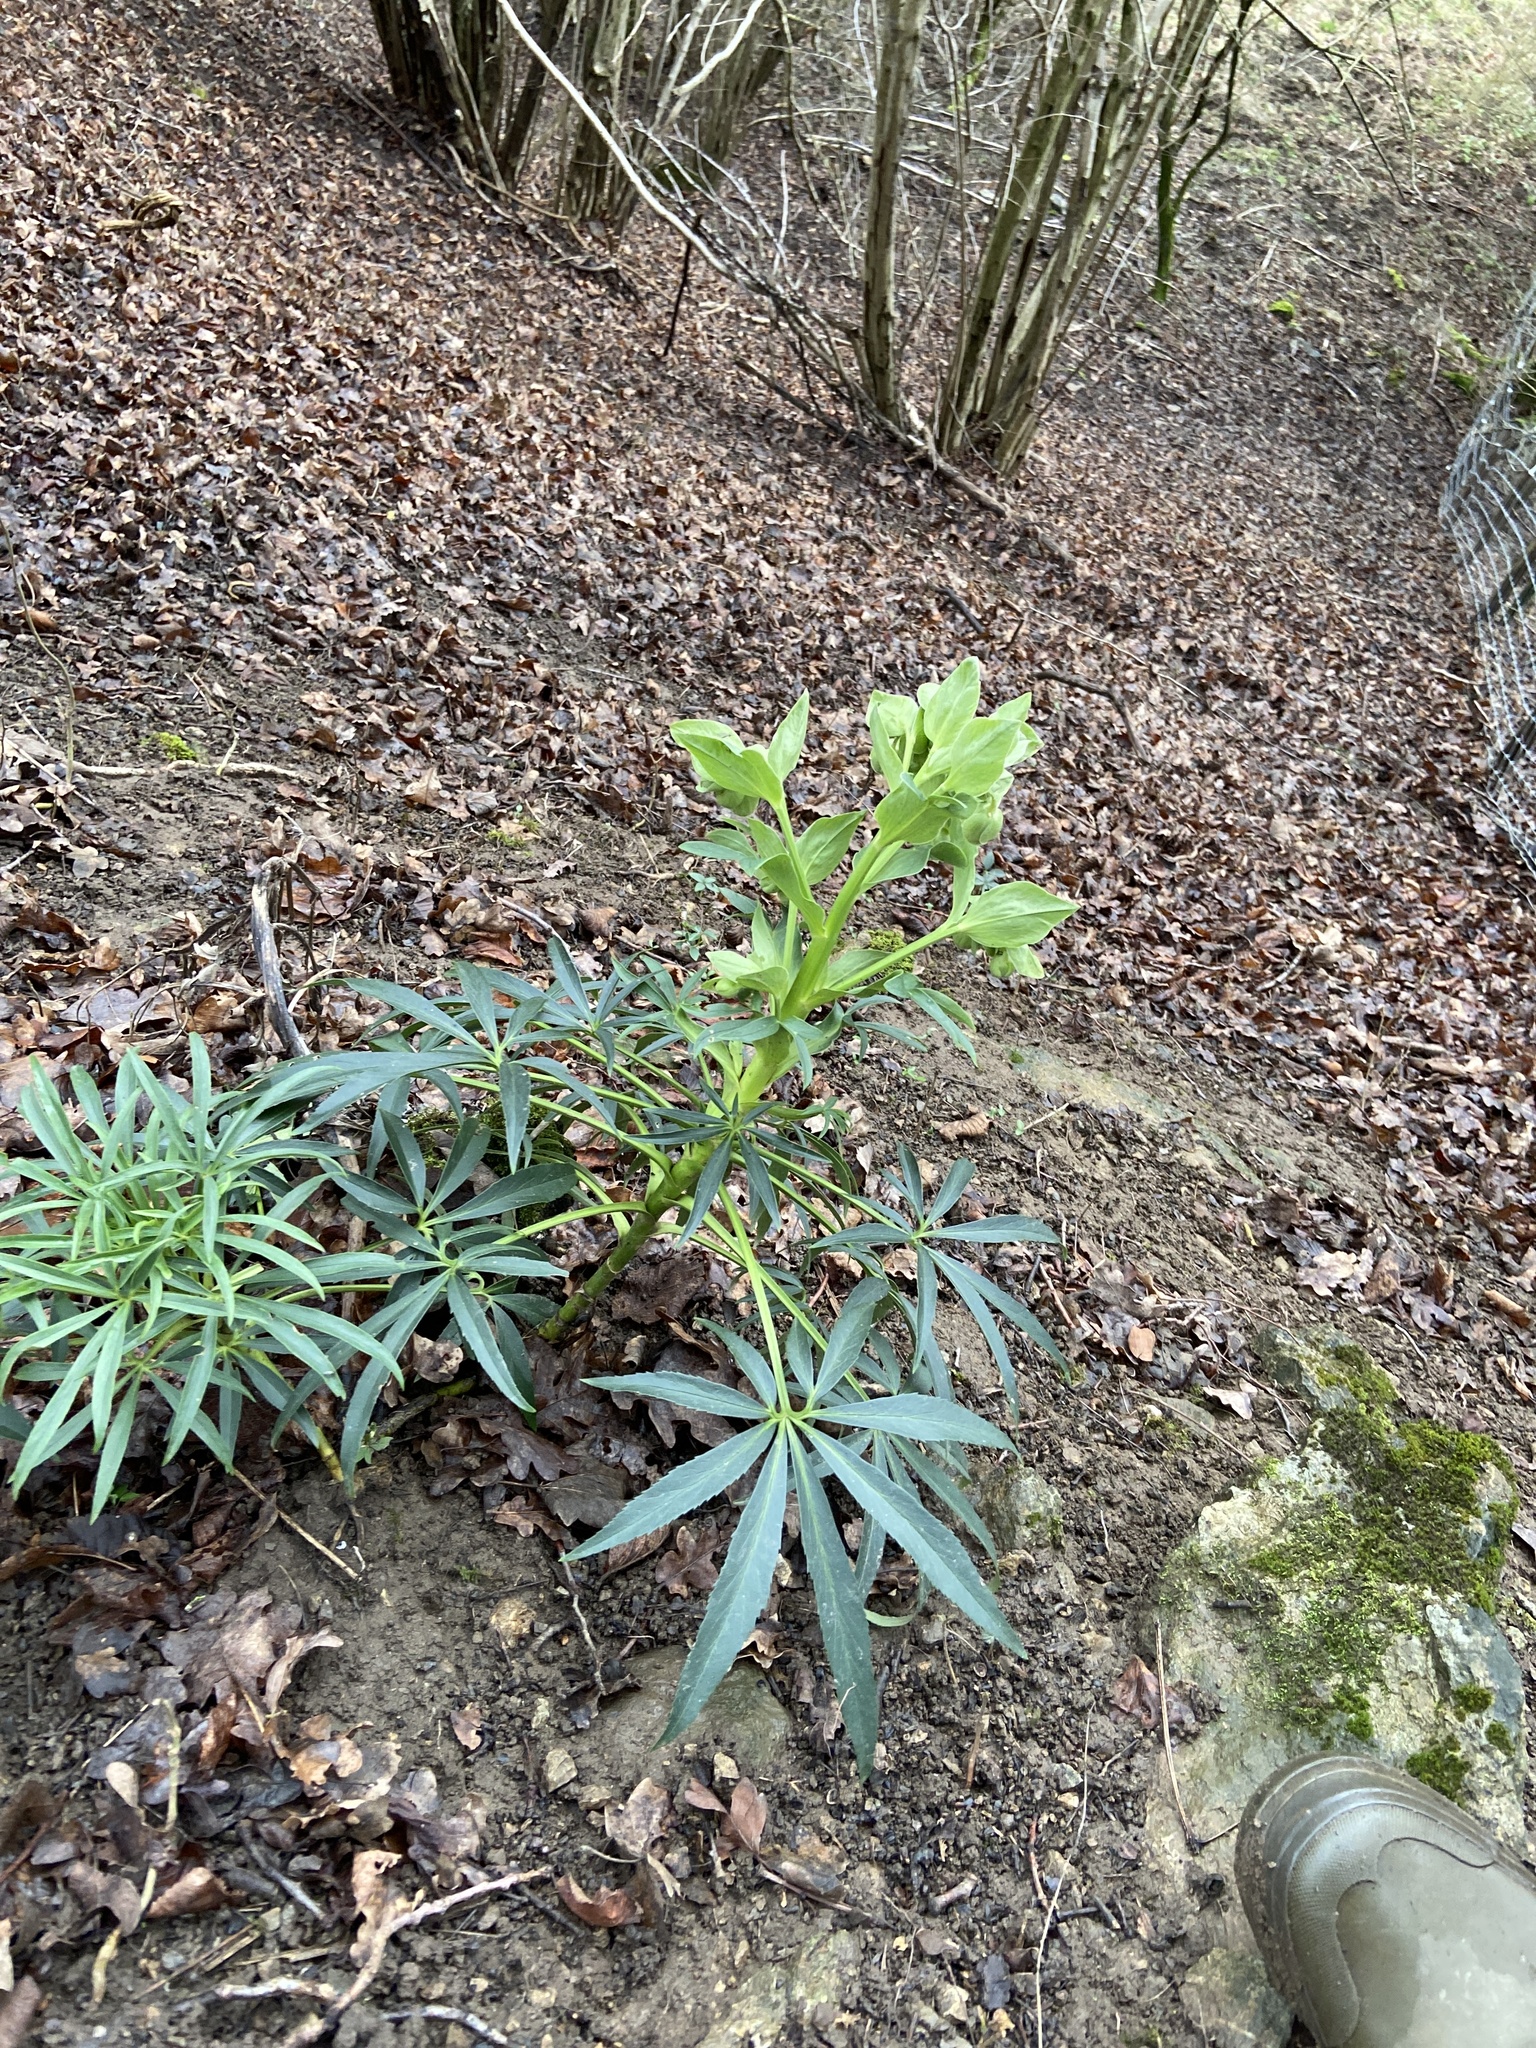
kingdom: Plantae
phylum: Tracheophyta
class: Magnoliopsida
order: Ranunculales
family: Ranunculaceae
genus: Helleborus
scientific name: Helleborus foetidus
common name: Stinking hellebore
